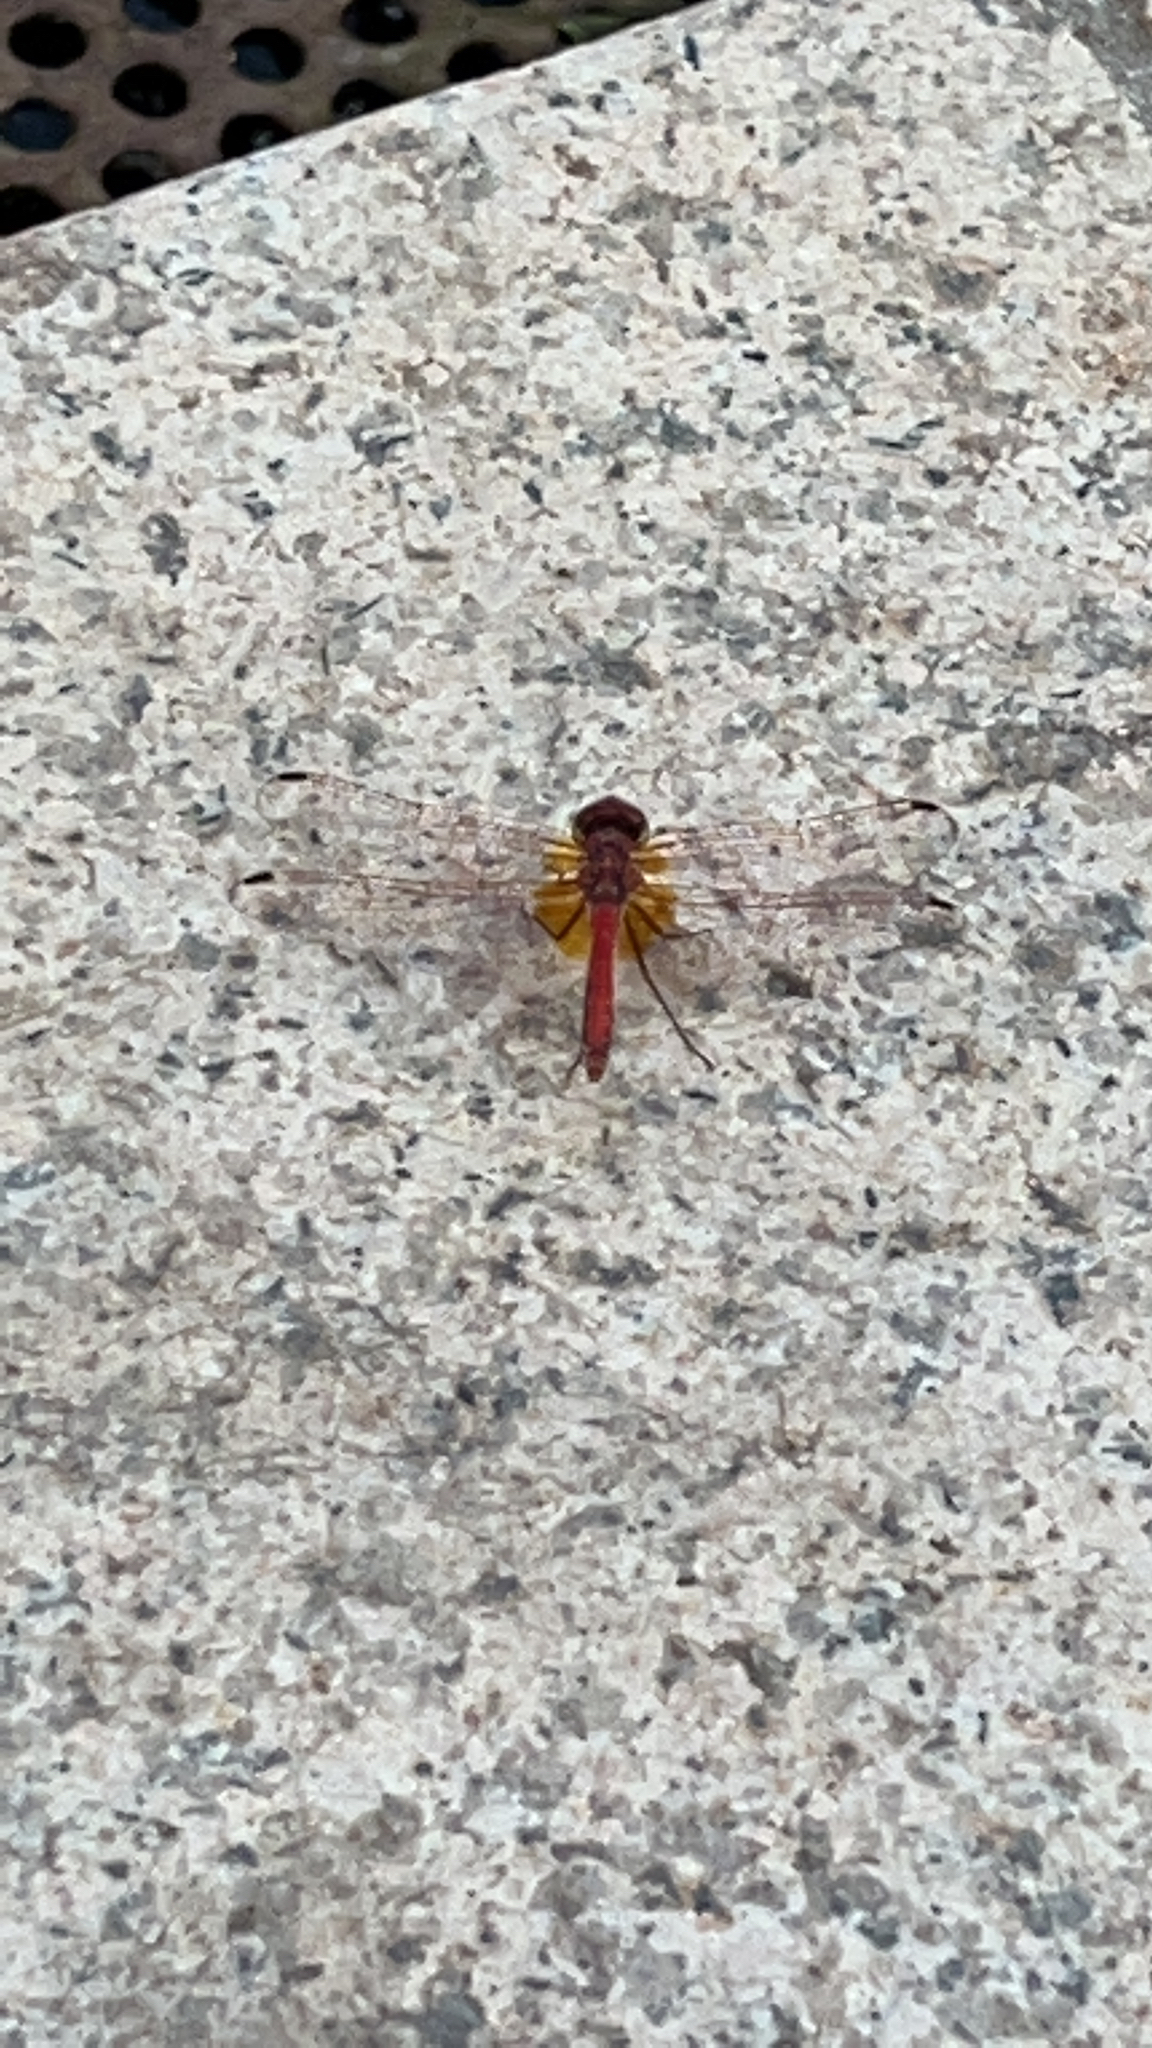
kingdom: Animalia
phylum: Arthropoda
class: Insecta
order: Odonata
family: Libellulidae
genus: Trithemis
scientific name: Trithemis arteriosa
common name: Red-veined dropwing
